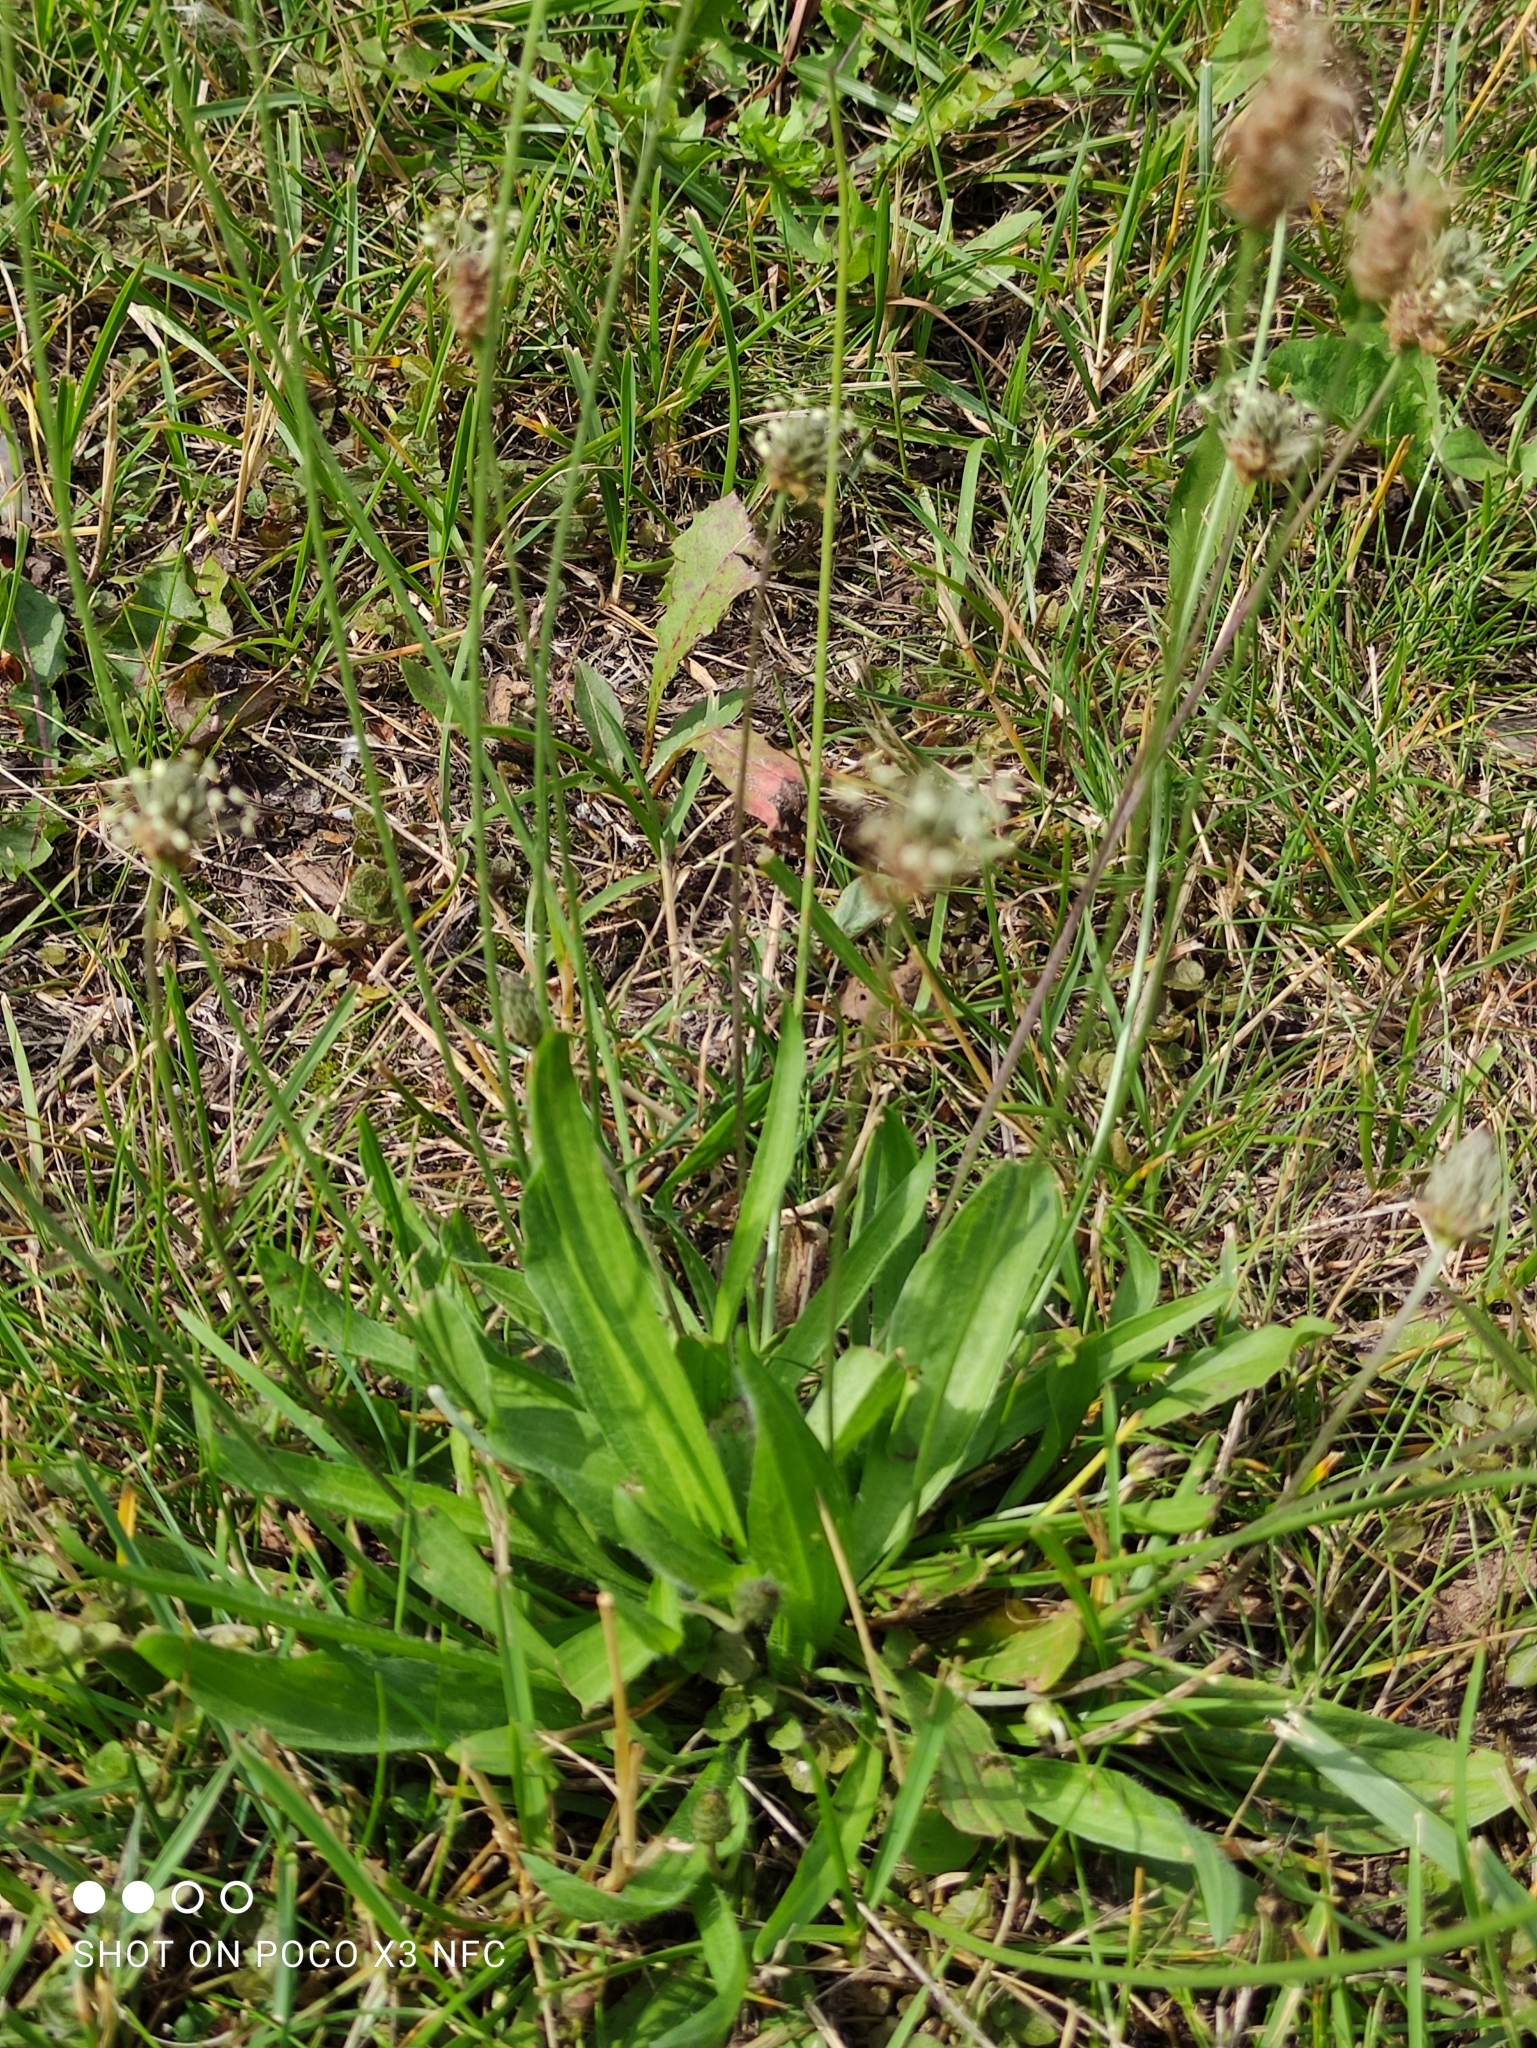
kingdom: Plantae
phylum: Tracheophyta
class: Magnoliopsida
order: Lamiales
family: Plantaginaceae
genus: Plantago
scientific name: Plantago lanceolata
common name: Ribwort plantain
